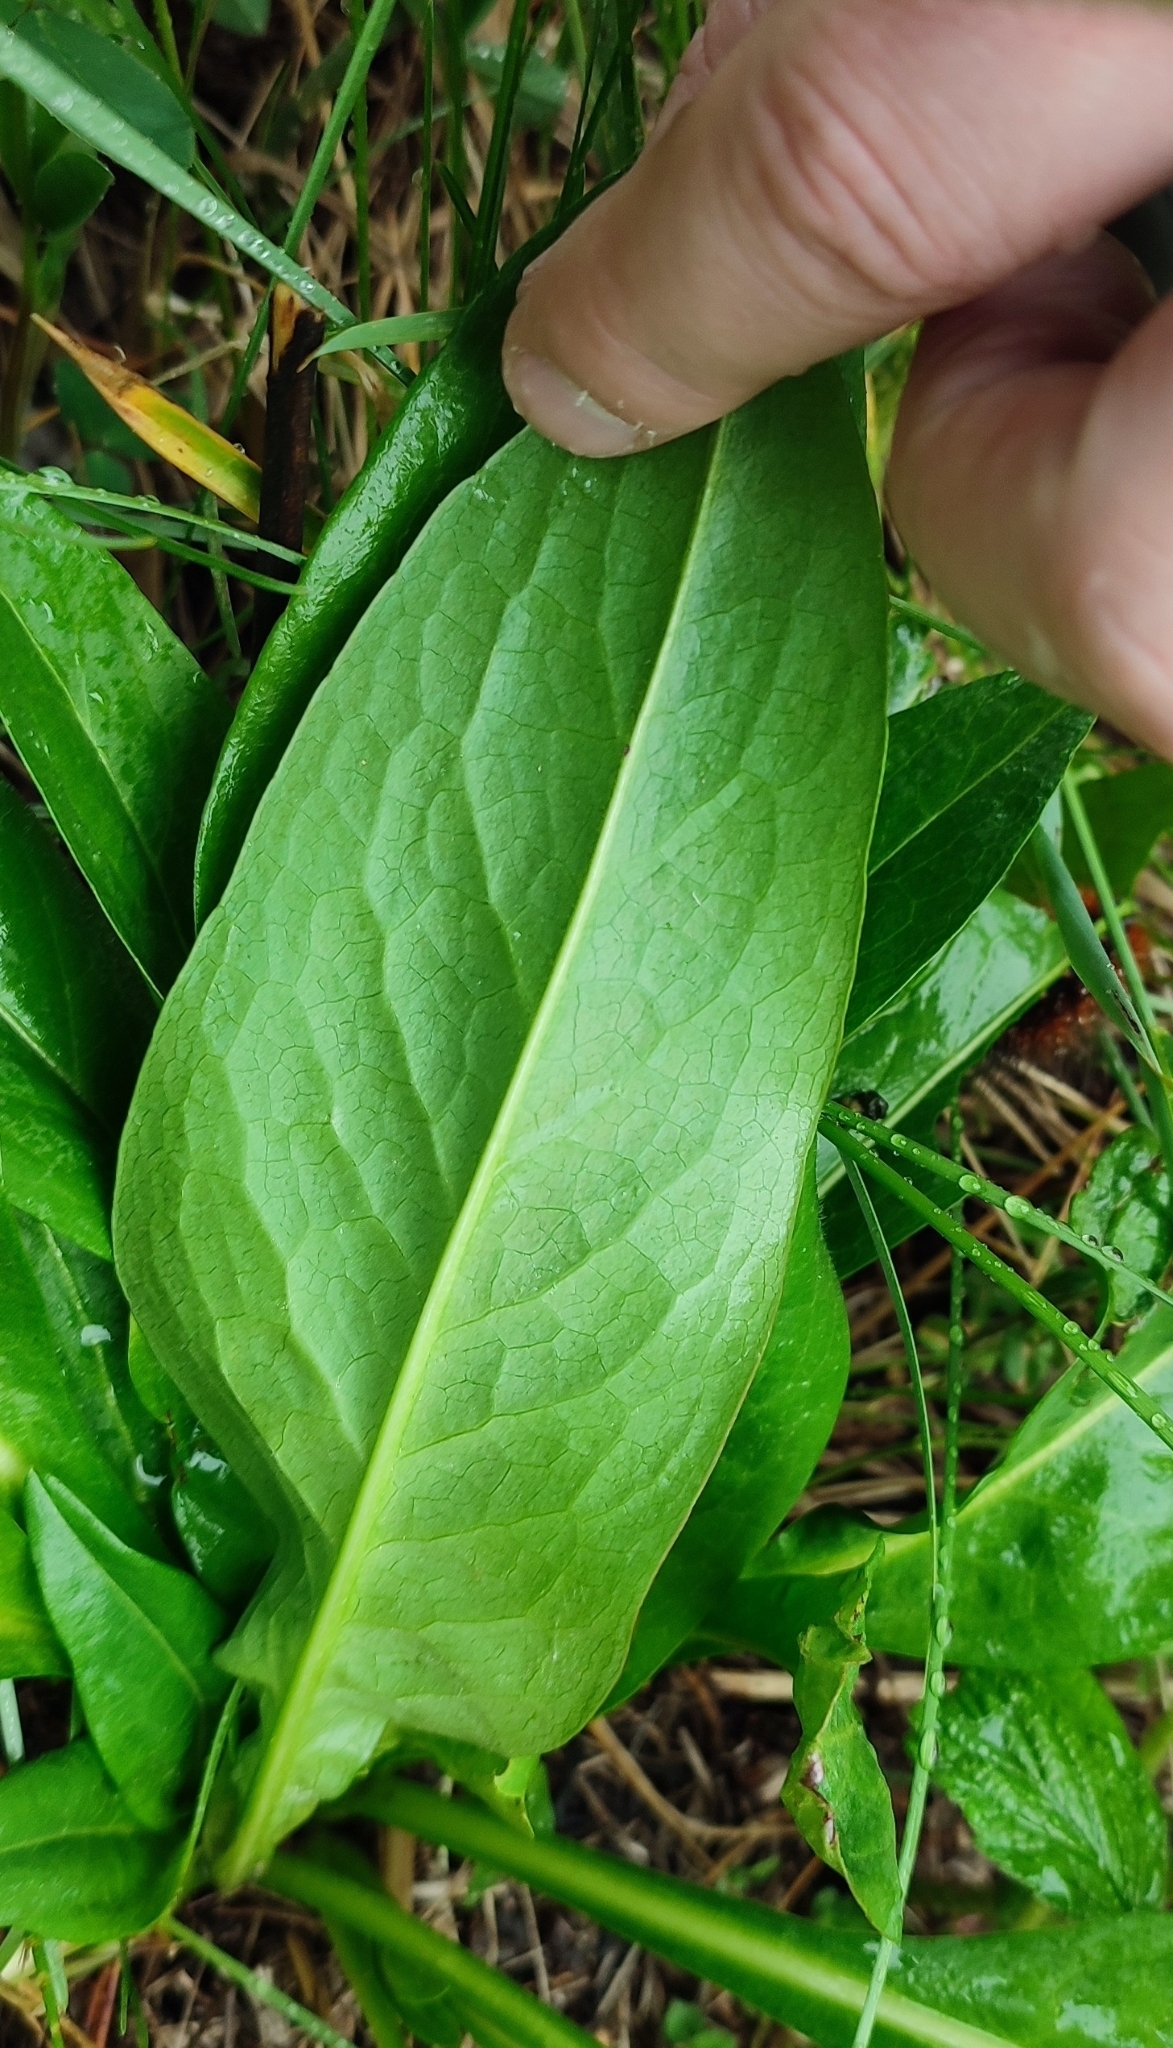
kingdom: Plantae
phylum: Tracheophyta
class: Magnoliopsida
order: Dipsacales
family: Caprifoliaceae
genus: Succisa
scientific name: Succisa pratensis
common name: Devil's-bit
